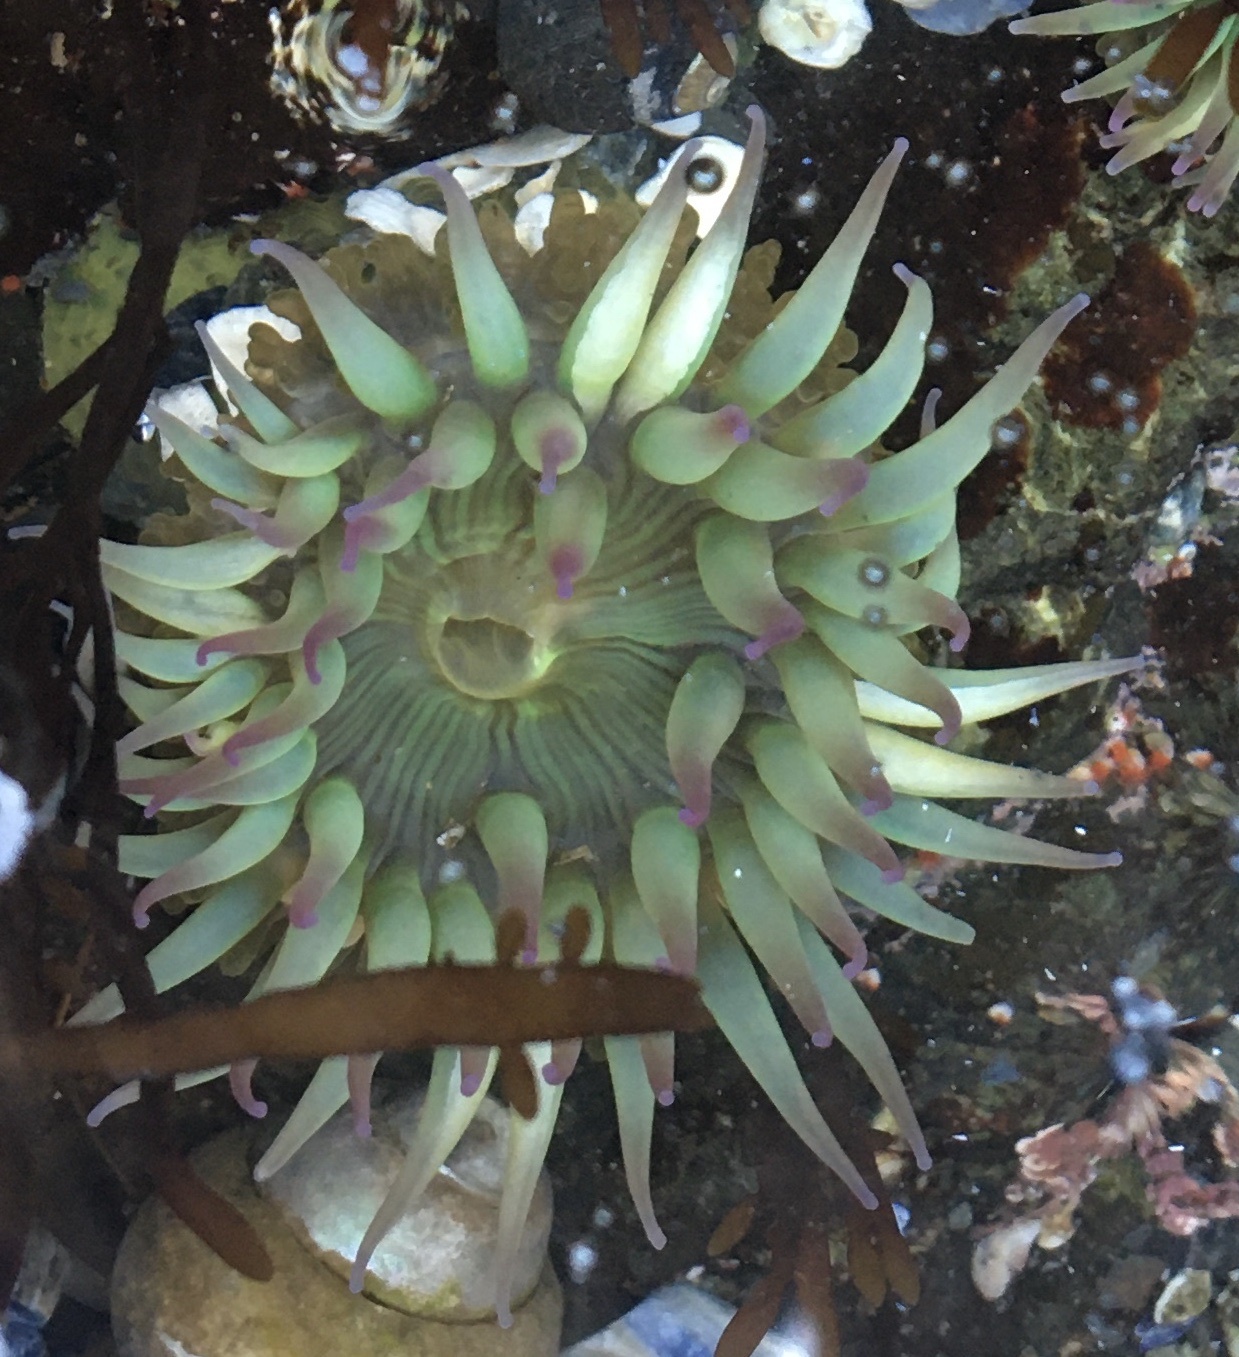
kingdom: Animalia
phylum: Cnidaria
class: Anthozoa
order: Actiniaria
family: Actiniidae
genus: Anthopleura
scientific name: Anthopleura elegantissima
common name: Clonal anemone
